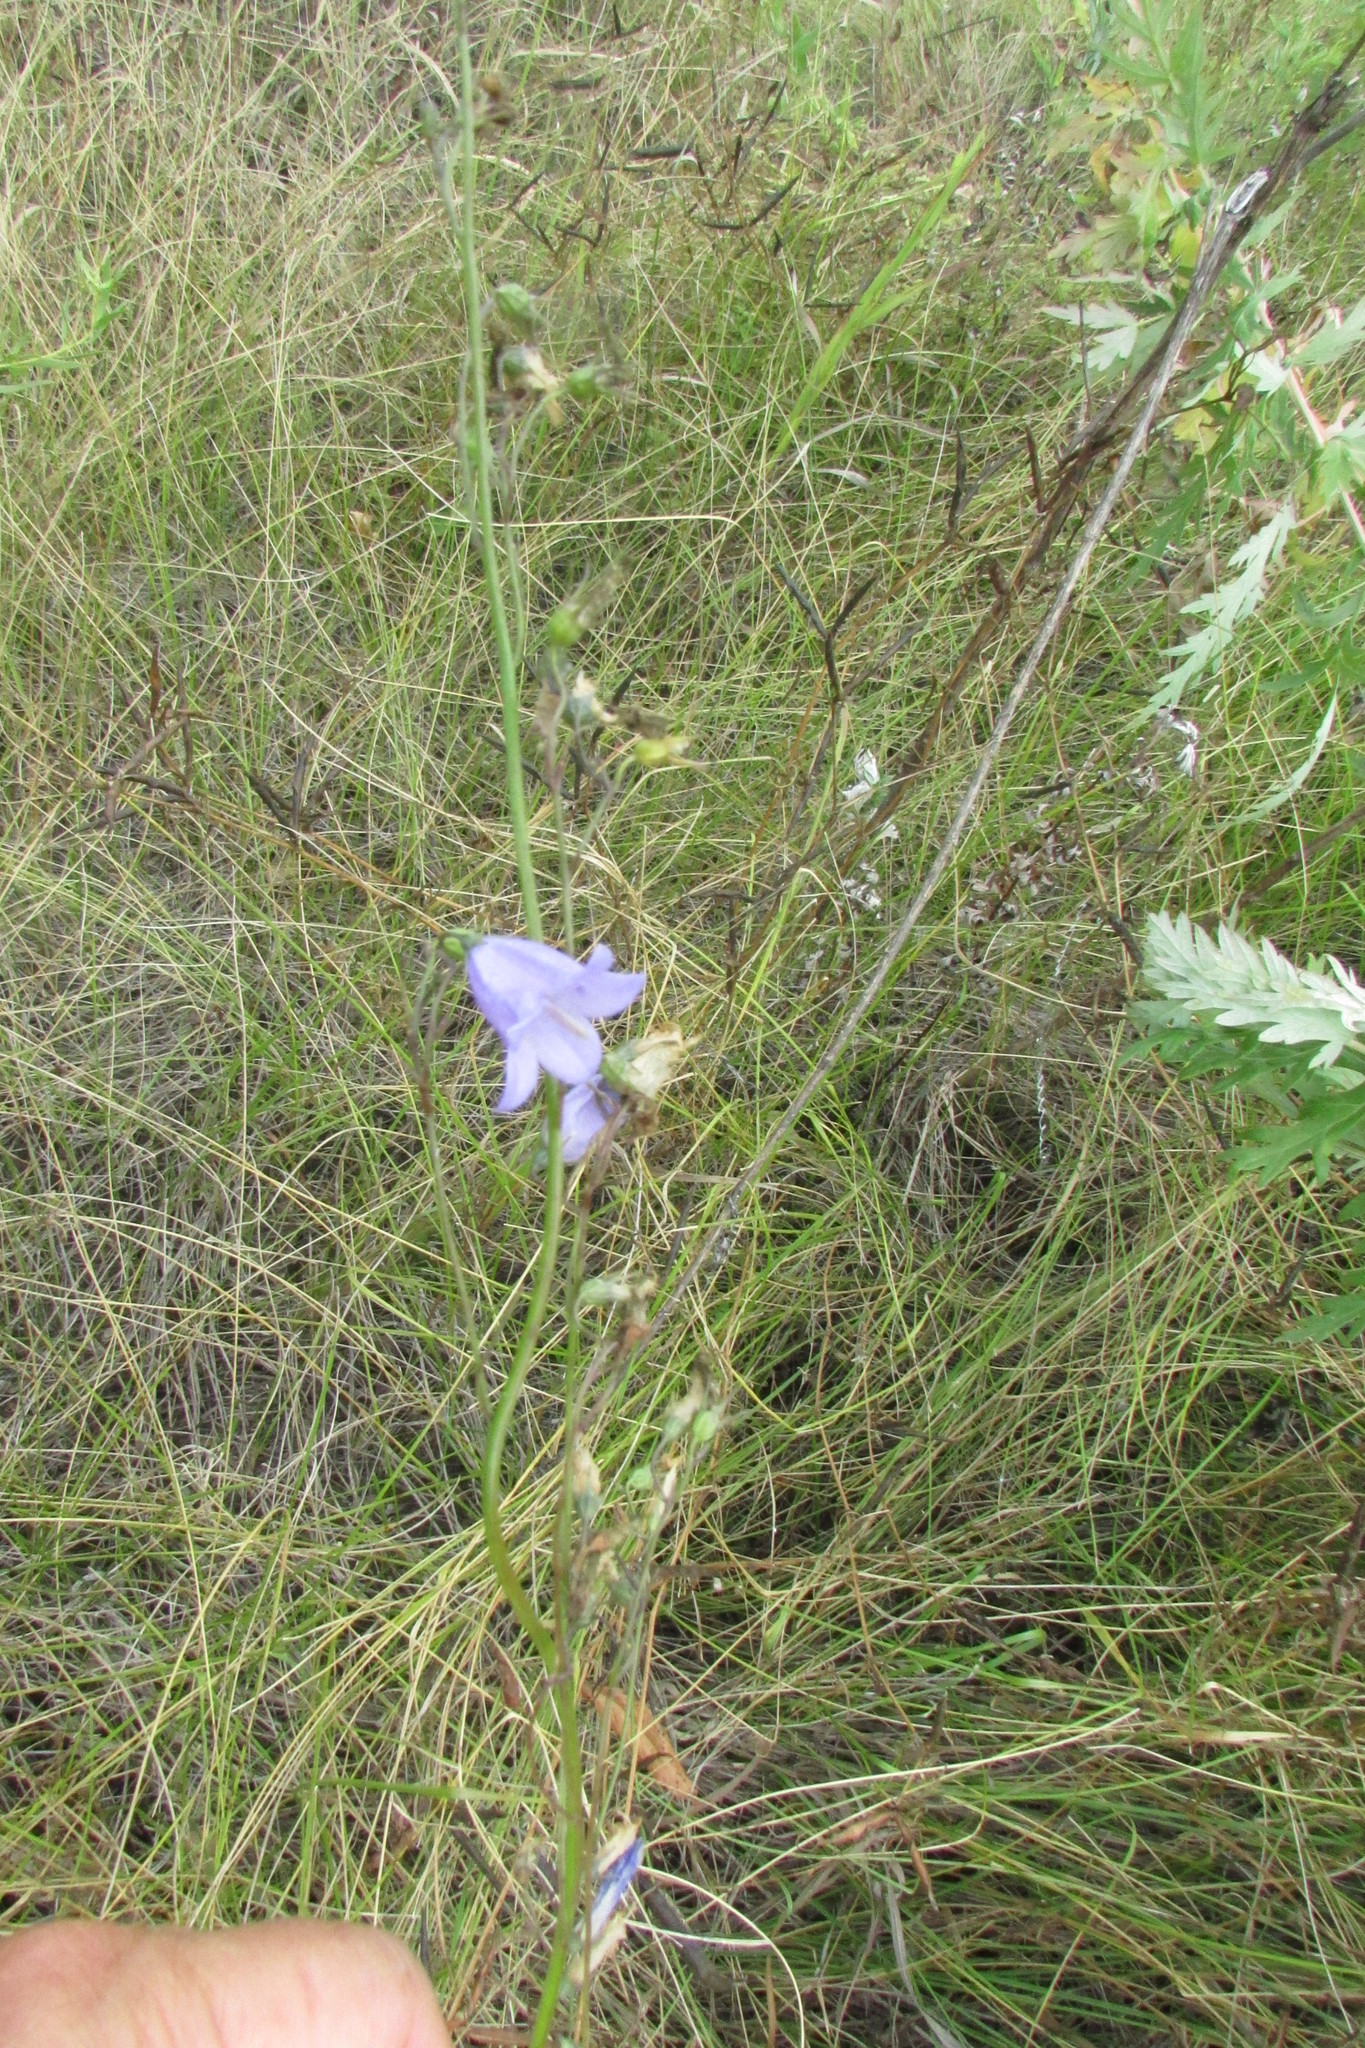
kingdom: Plantae
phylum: Tracheophyta
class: Magnoliopsida
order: Asterales
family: Campanulaceae
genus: Campanula
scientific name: Campanula rotundifolia
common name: Harebell
